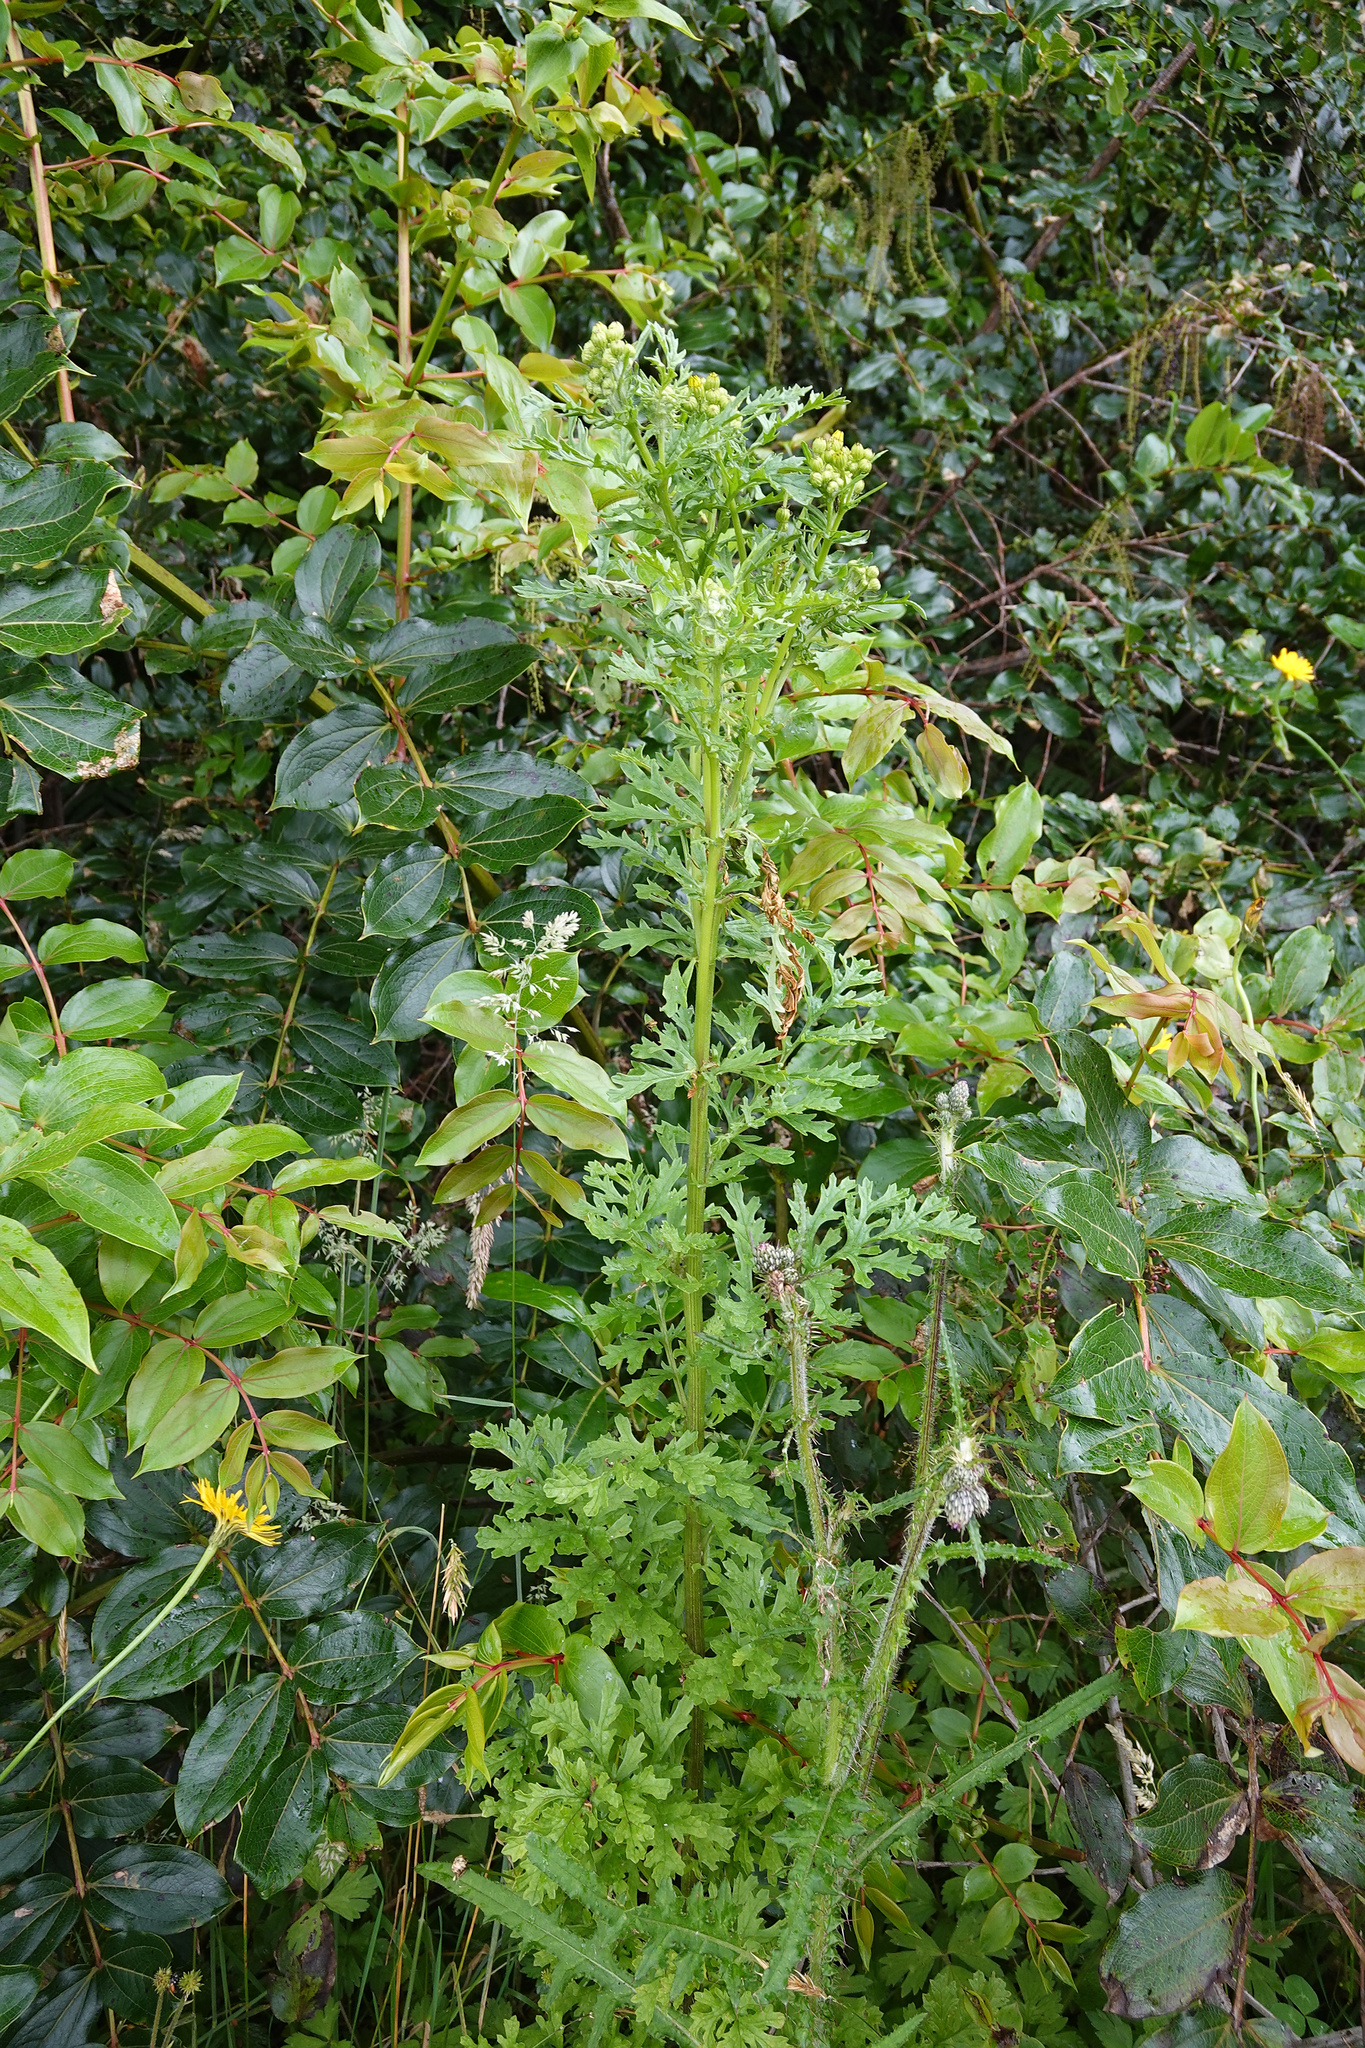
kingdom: Plantae
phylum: Tracheophyta
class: Magnoliopsida
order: Asterales
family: Asteraceae
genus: Jacobaea
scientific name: Jacobaea vulgaris
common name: Stinking willie
